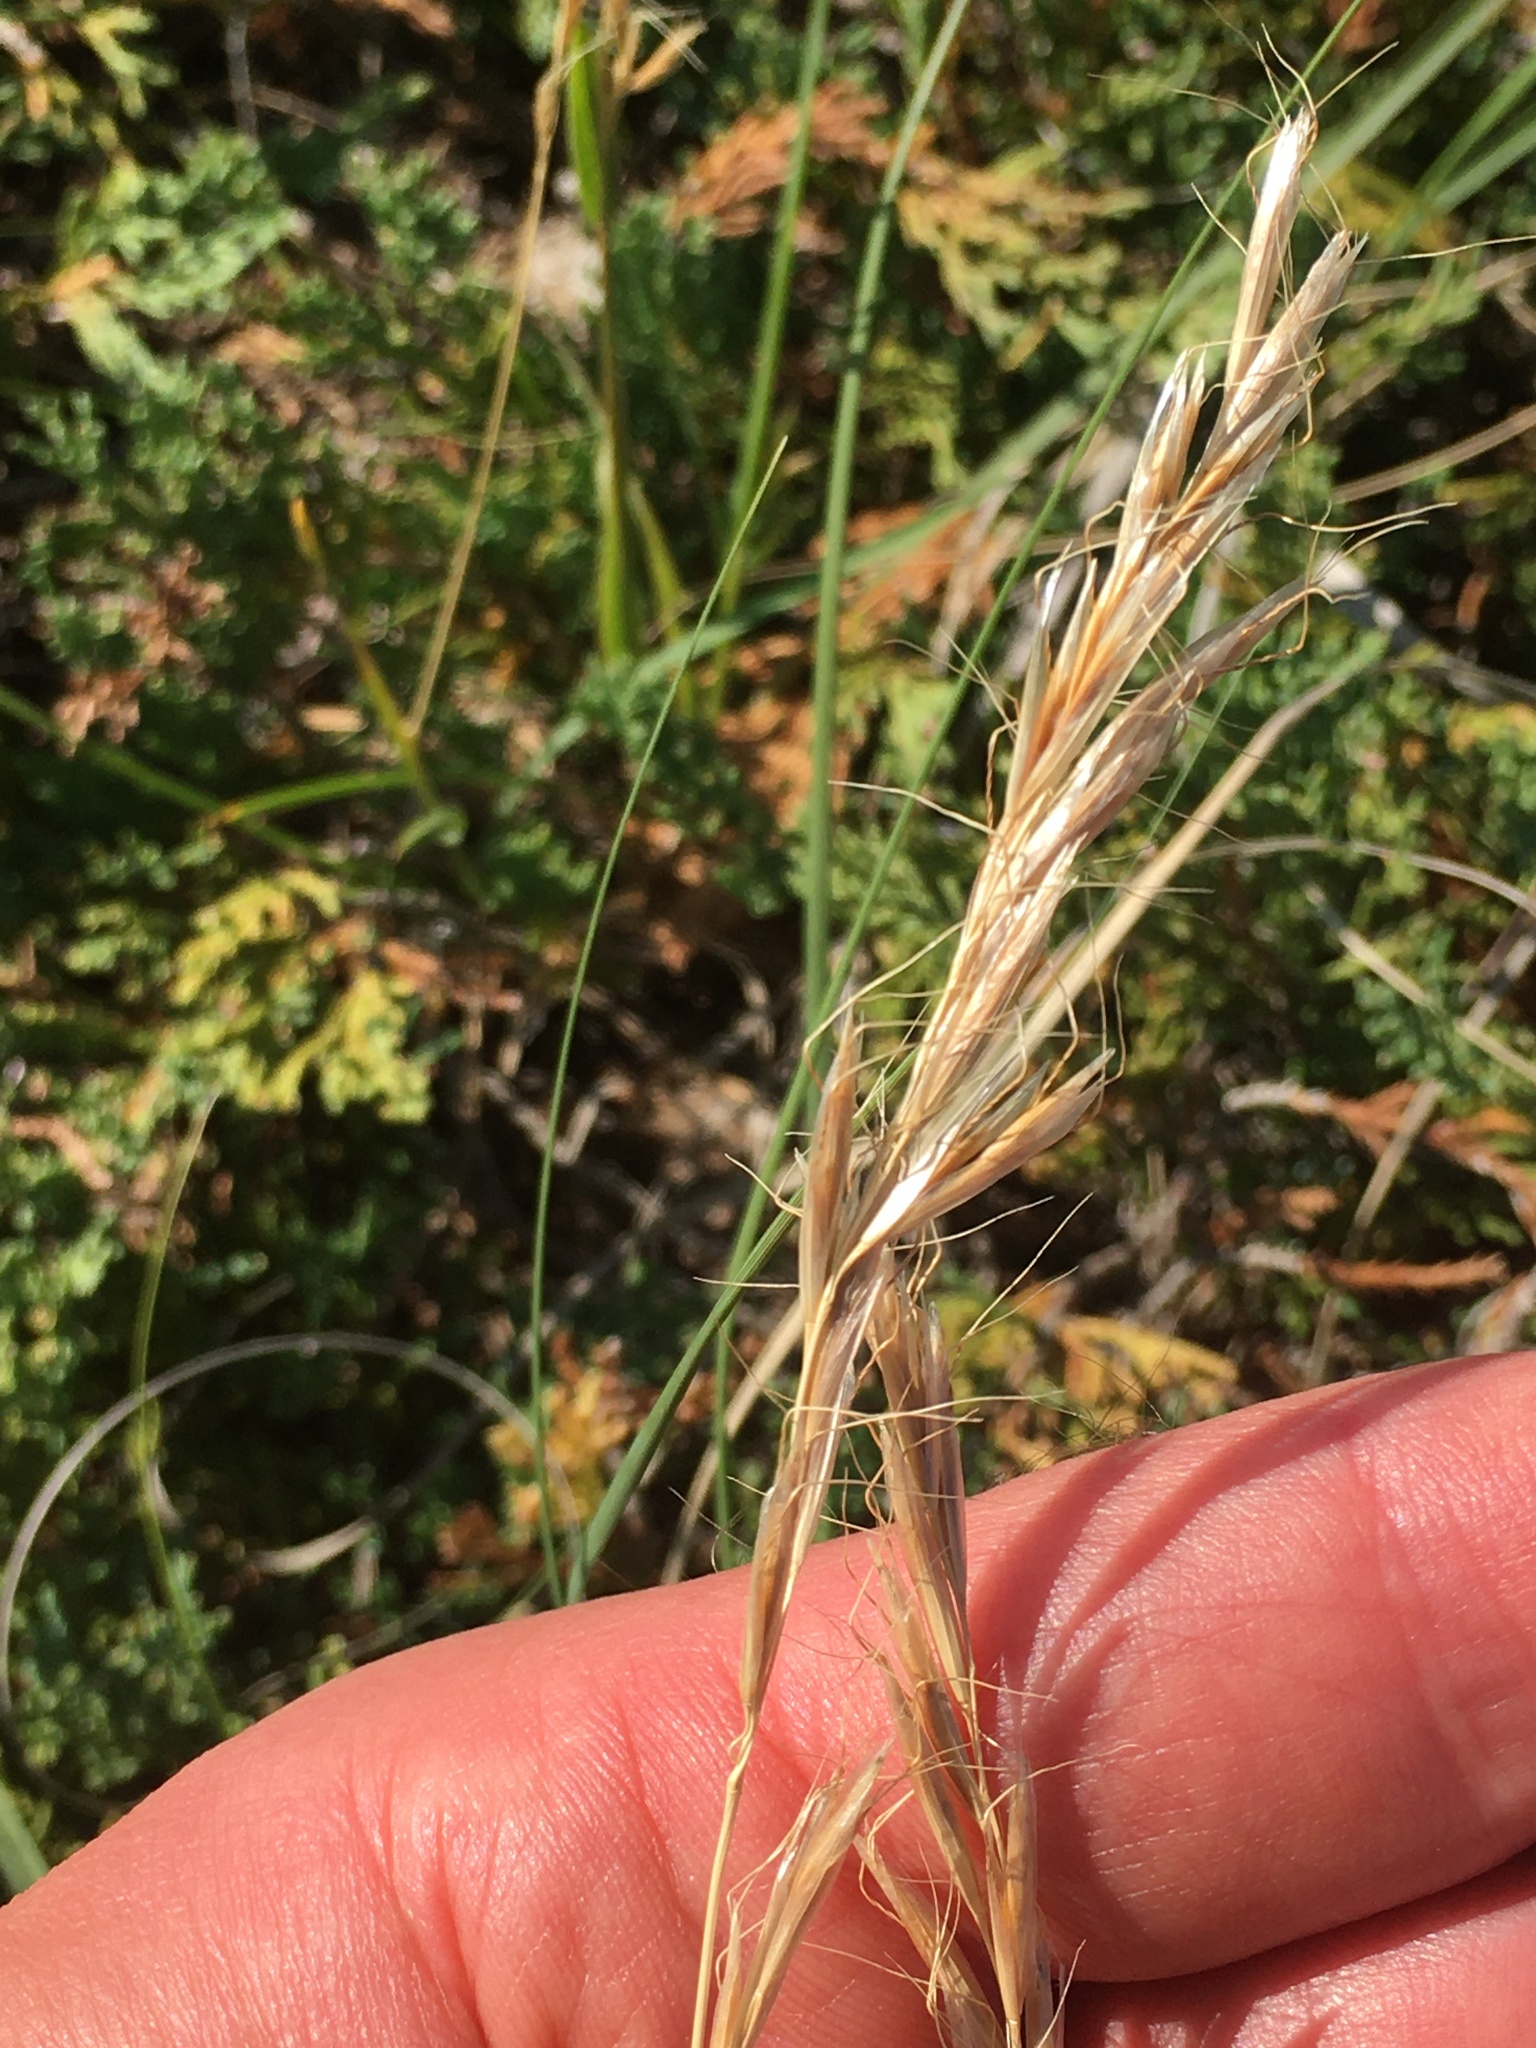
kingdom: Plantae
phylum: Tracheophyta
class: Liliopsida
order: Poales
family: Poaceae
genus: Helictochloa
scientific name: Helictochloa hookeri
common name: Hooker's alpine oatgrass
